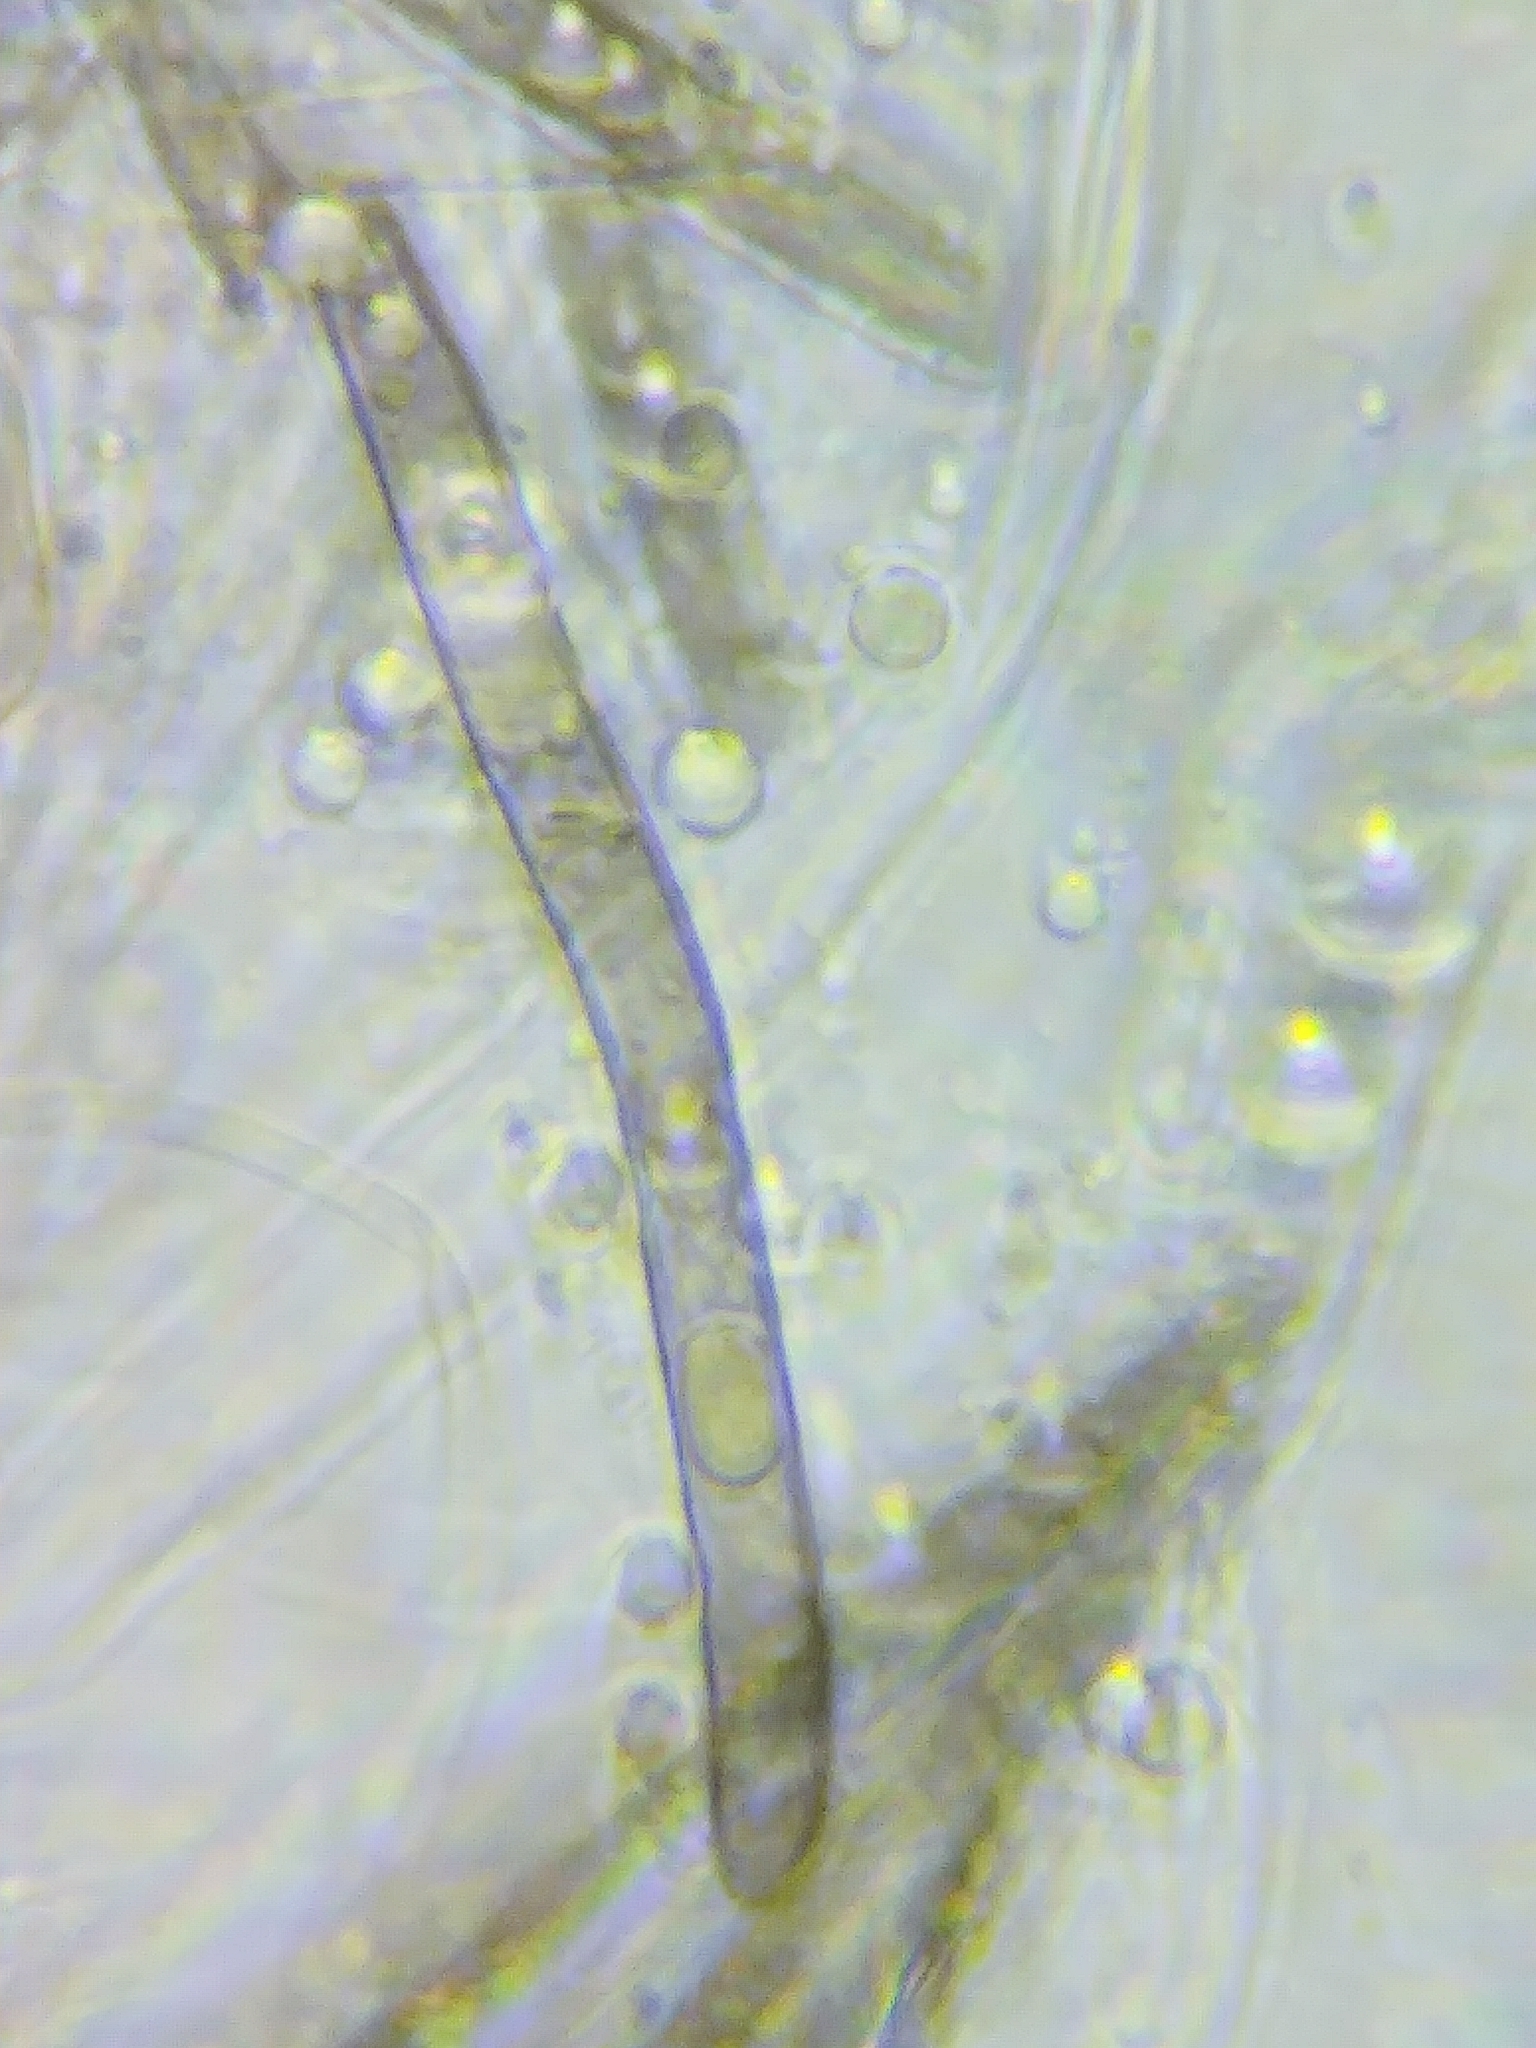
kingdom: Fungi
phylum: Ascomycota
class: Geoglossomycetes
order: Geoglossales
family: Geoglossaceae
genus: Glutinoglossum
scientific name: Glutinoglossum orientale
